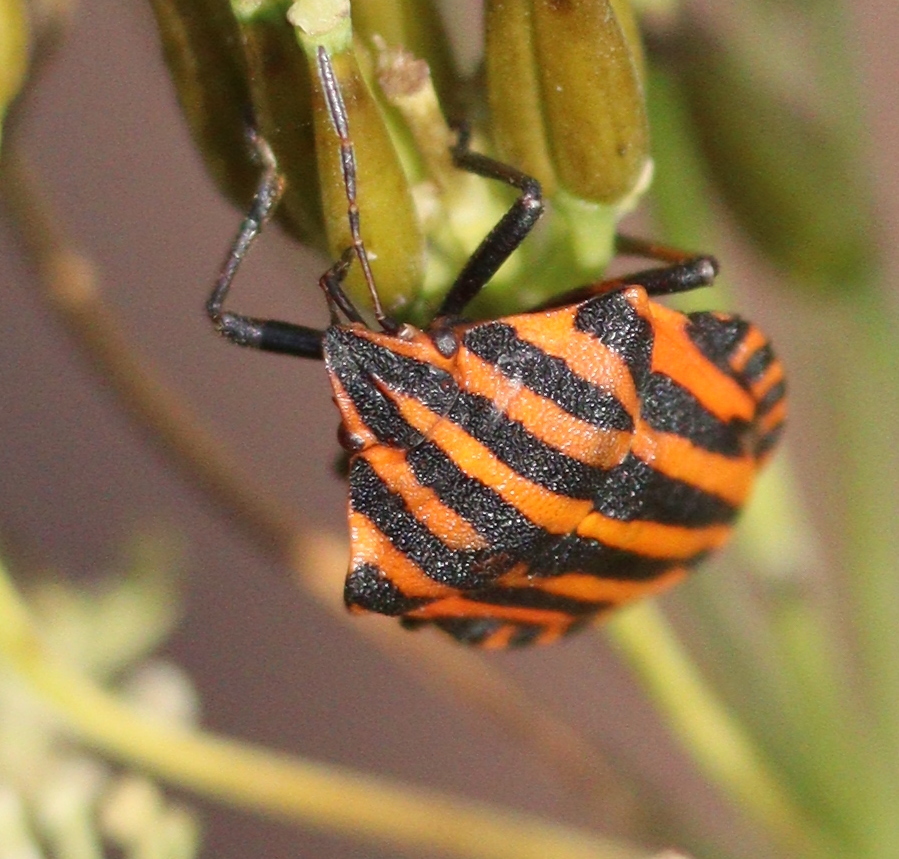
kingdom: Animalia
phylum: Arthropoda
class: Insecta
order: Hemiptera
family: Pentatomidae
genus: Graphosoma
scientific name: Graphosoma italicum
